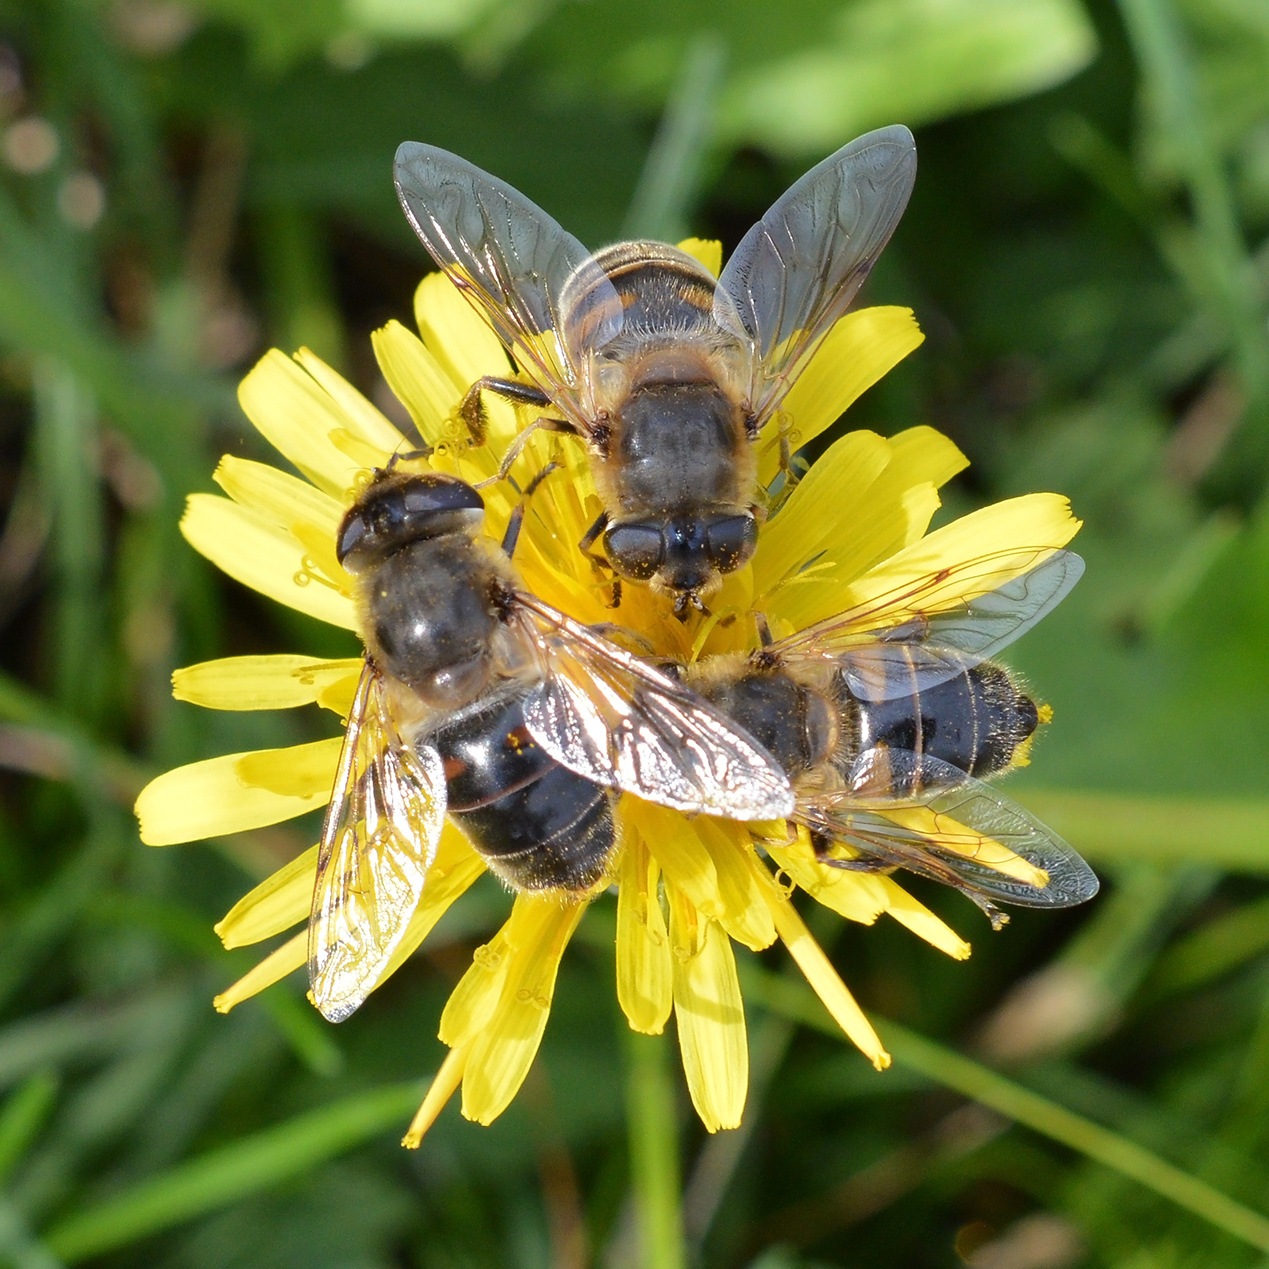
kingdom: Animalia
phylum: Arthropoda
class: Insecta
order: Diptera
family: Syrphidae
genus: Eristalis
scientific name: Eristalis tenax
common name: Drone fly
